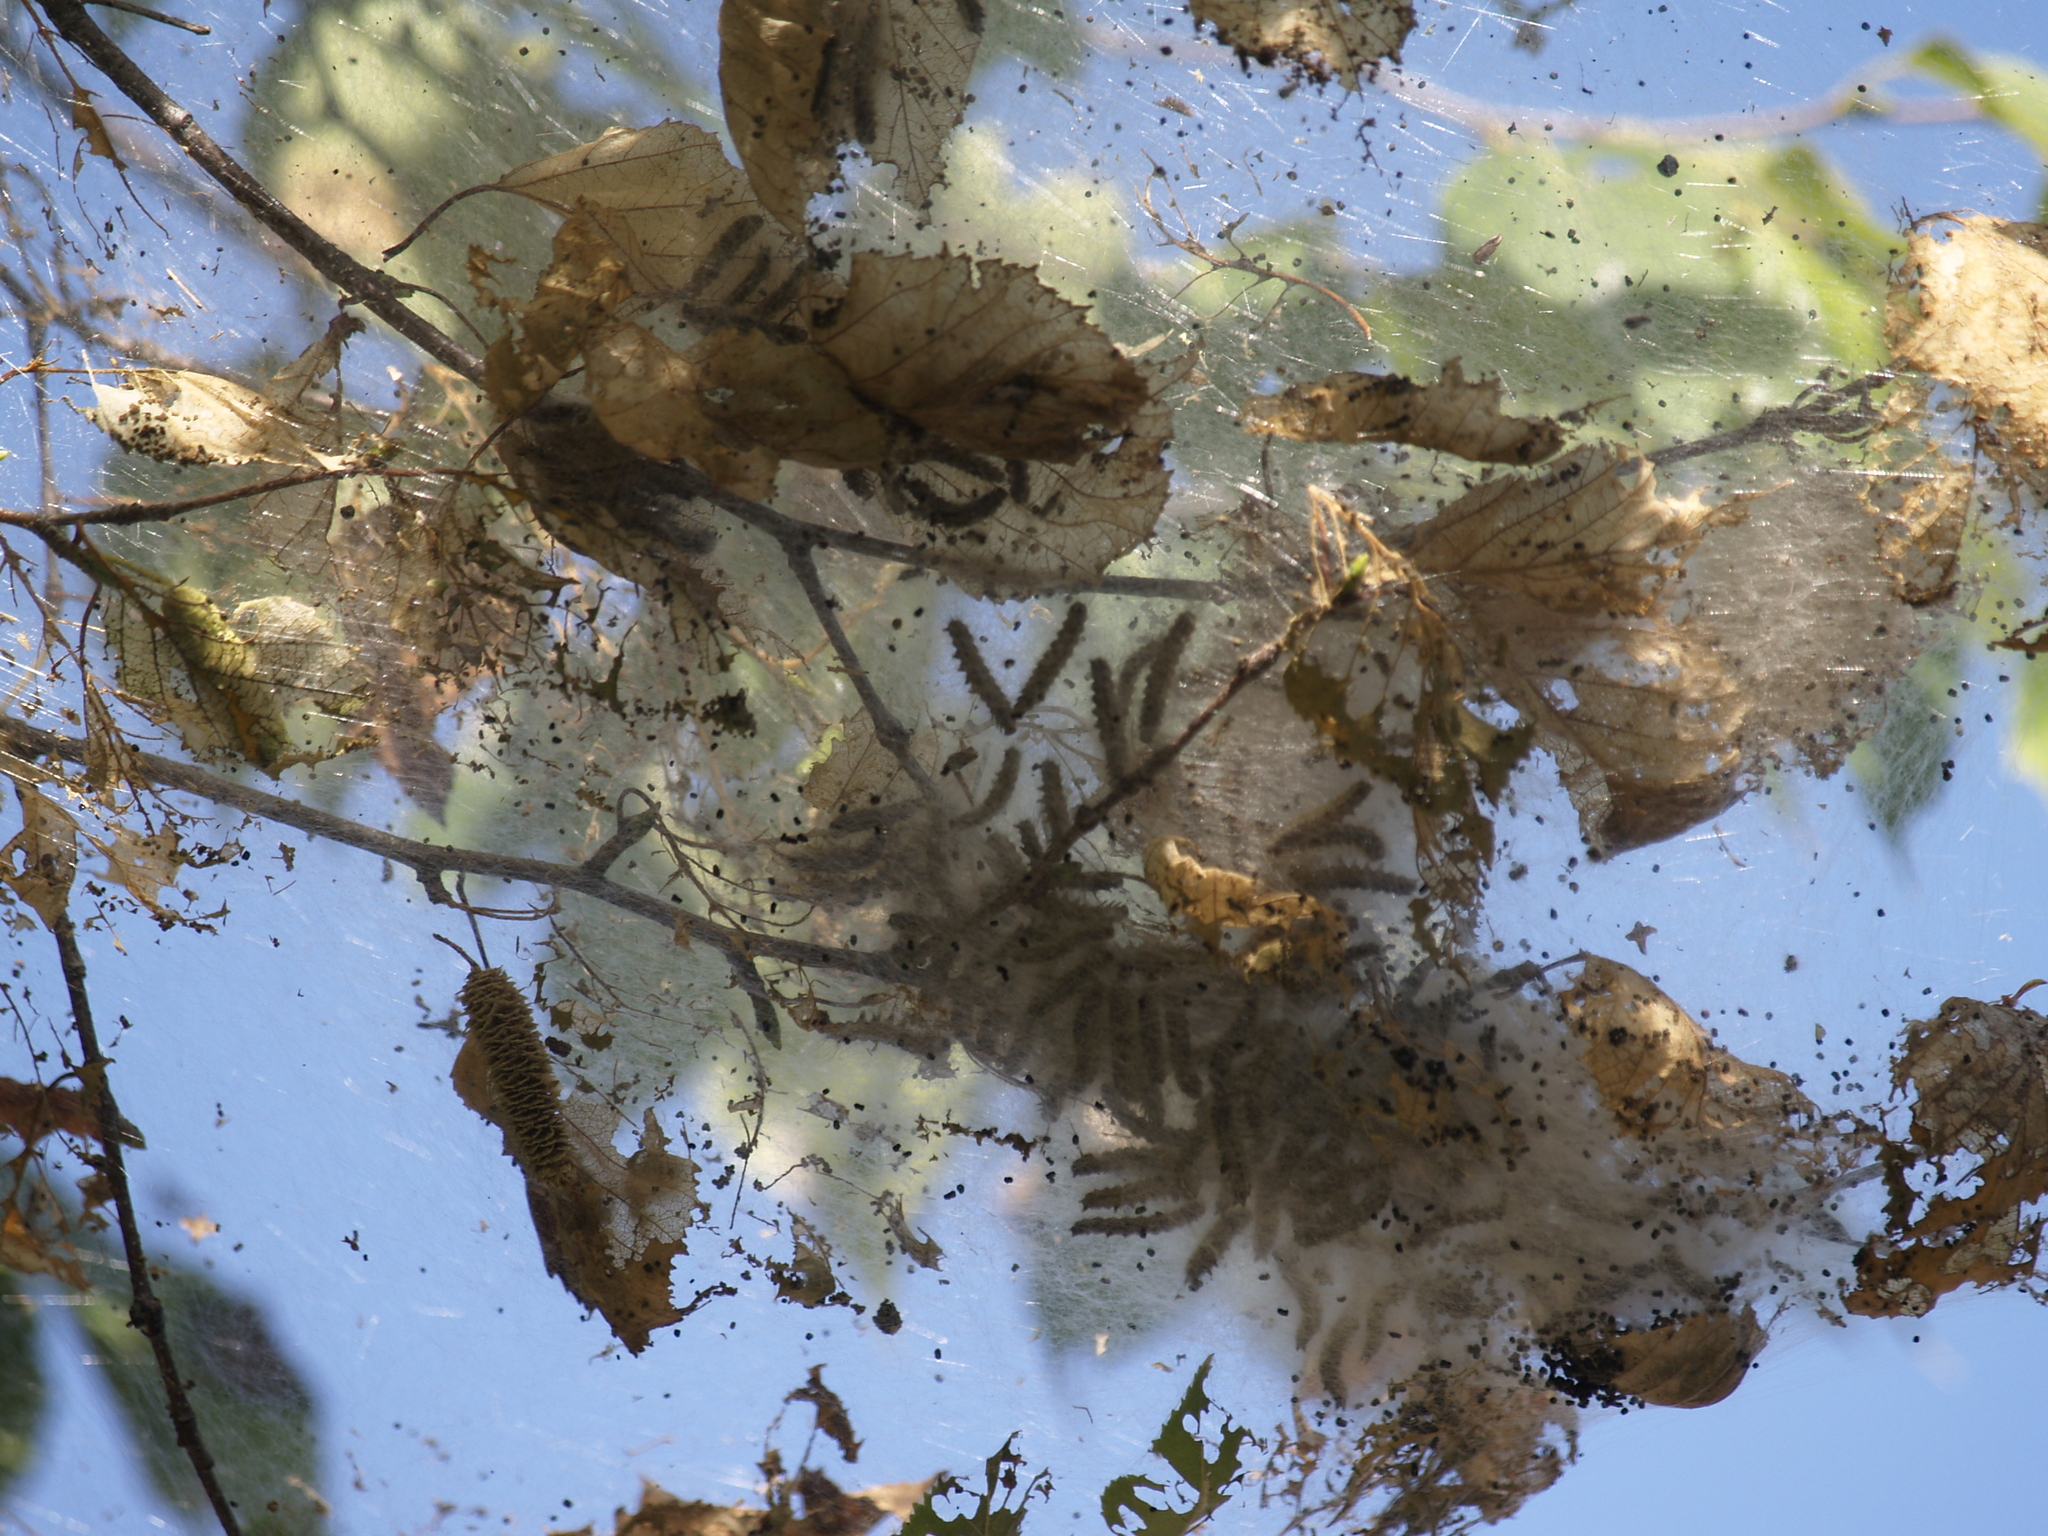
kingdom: Animalia
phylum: Arthropoda
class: Insecta
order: Lepidoptera
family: Erebidae
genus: Hyphantria
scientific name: Hyphantria cunea
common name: American white moth
